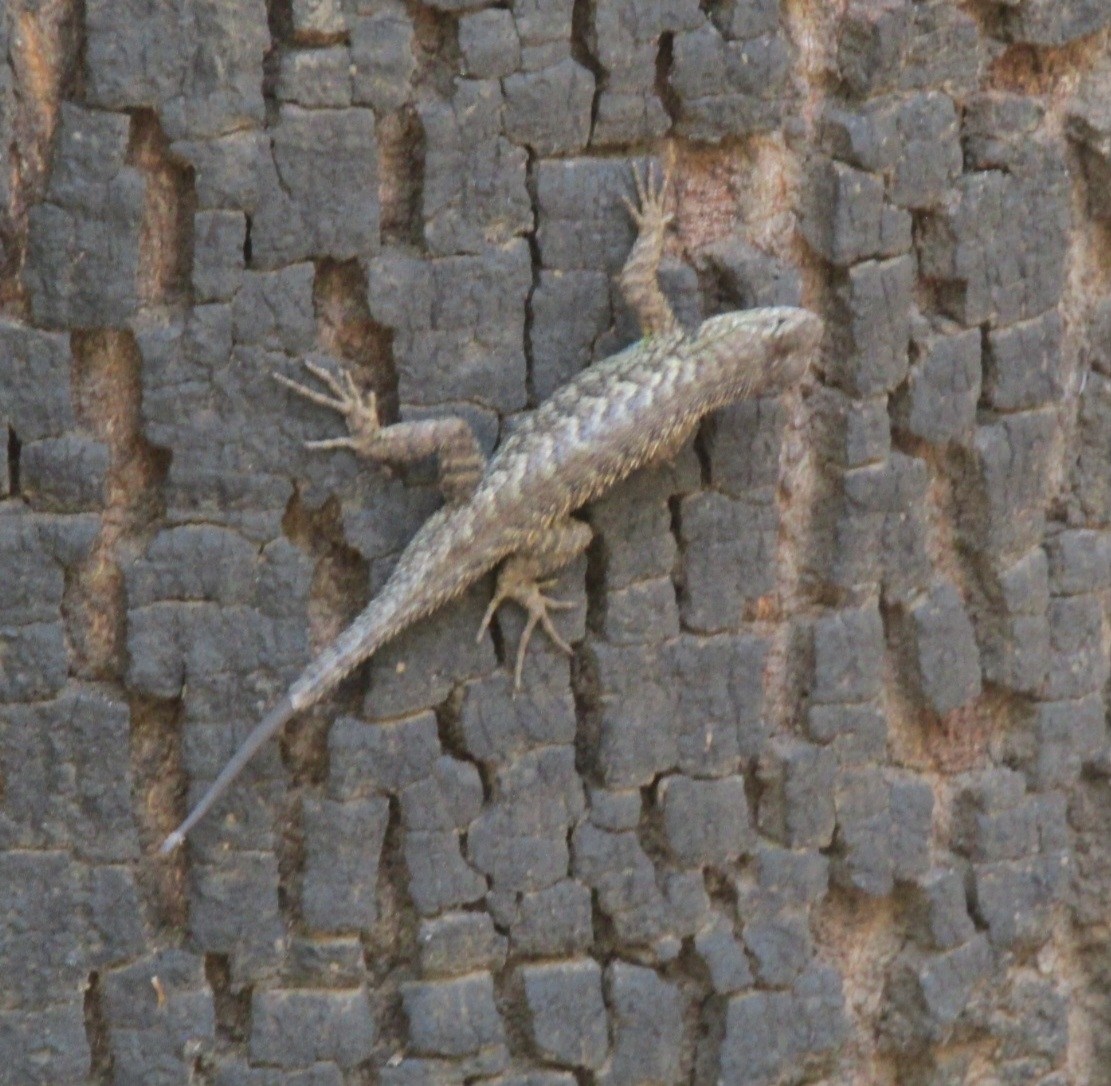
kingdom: Animalia
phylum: Chordata
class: Squamata
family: Phrynosomatidae
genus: Sceloporus
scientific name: Sceloporus occidentalis
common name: Western fence lizard
